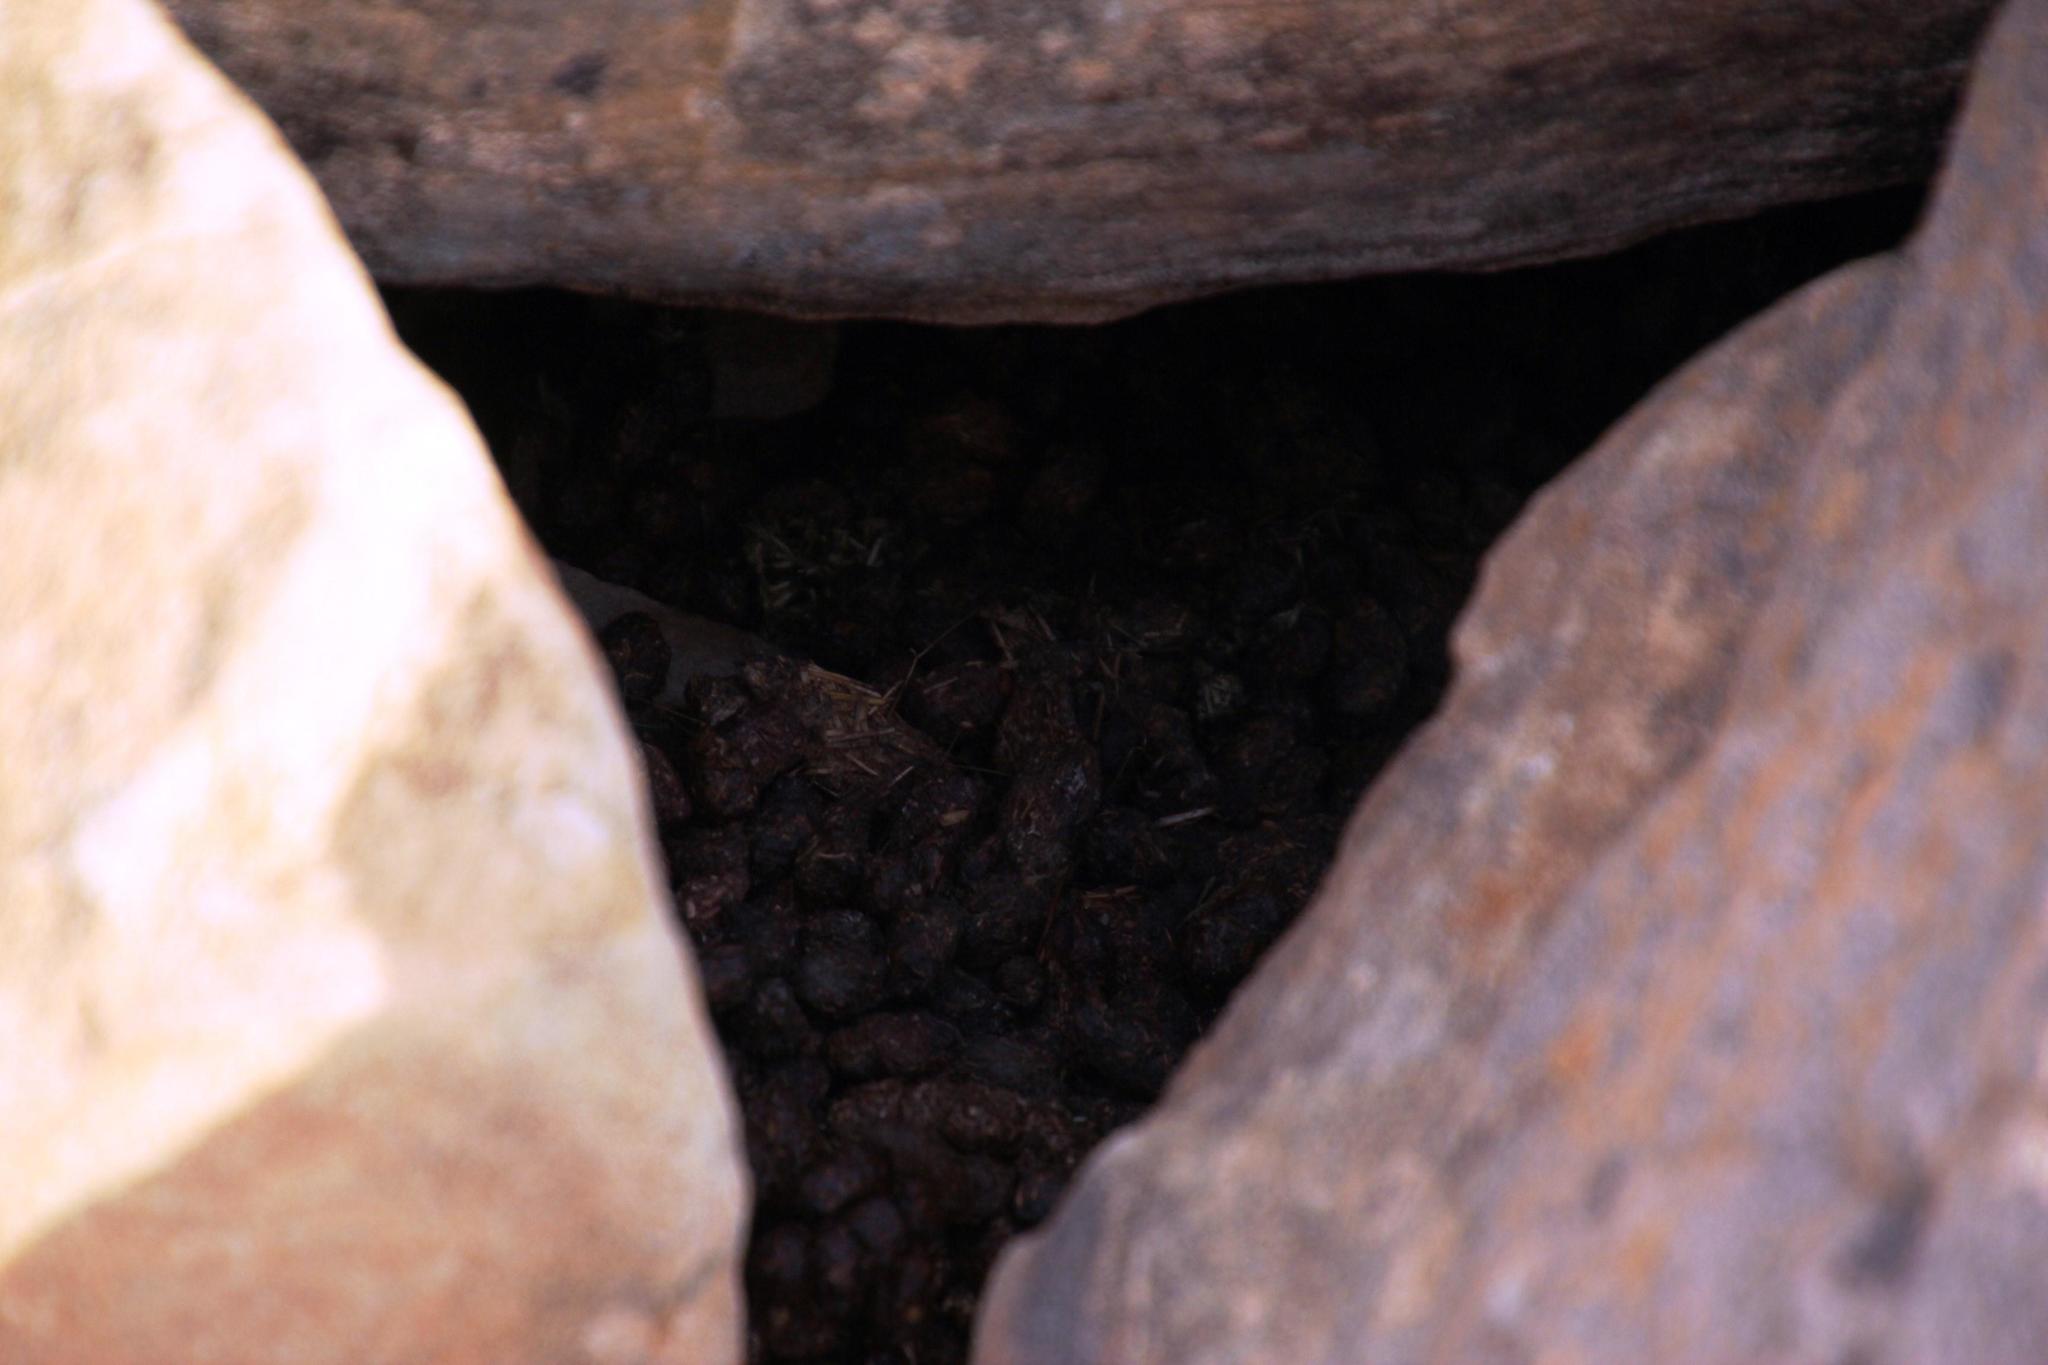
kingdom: Animalia
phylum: Chordata
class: Mammalia
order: Hyracoidea
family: Procaviidae
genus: Procavia
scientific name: Procavia capensis
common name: Rock hyrax
